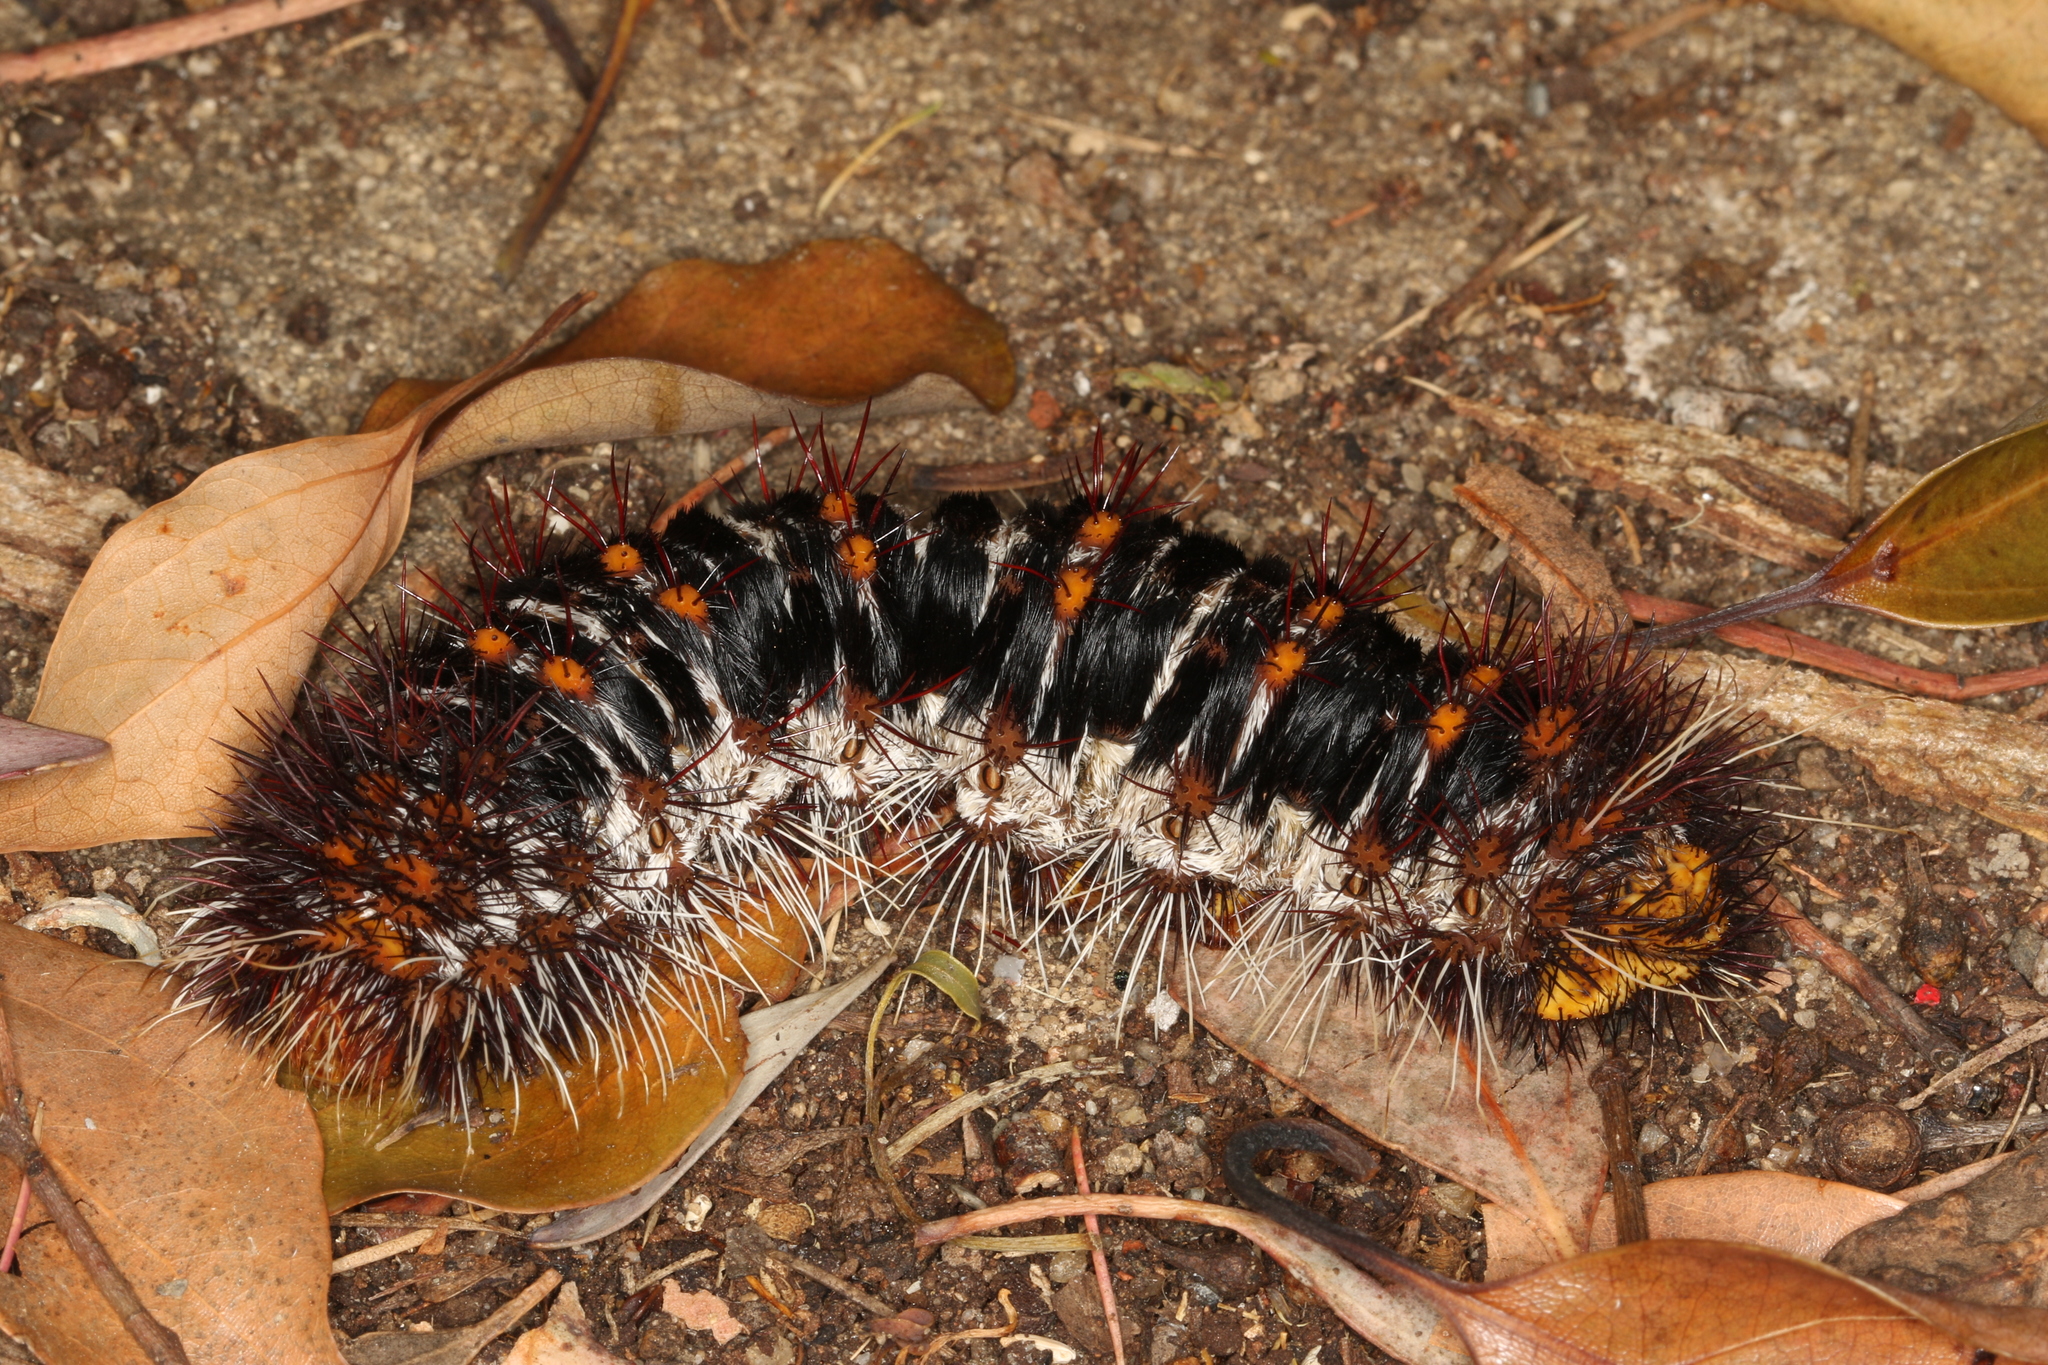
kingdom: Animalia
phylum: Arthropoda
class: Insecta
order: Lepidoptera
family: Anthelidae
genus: Chelepteryx
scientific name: Chelepteryx collesi
